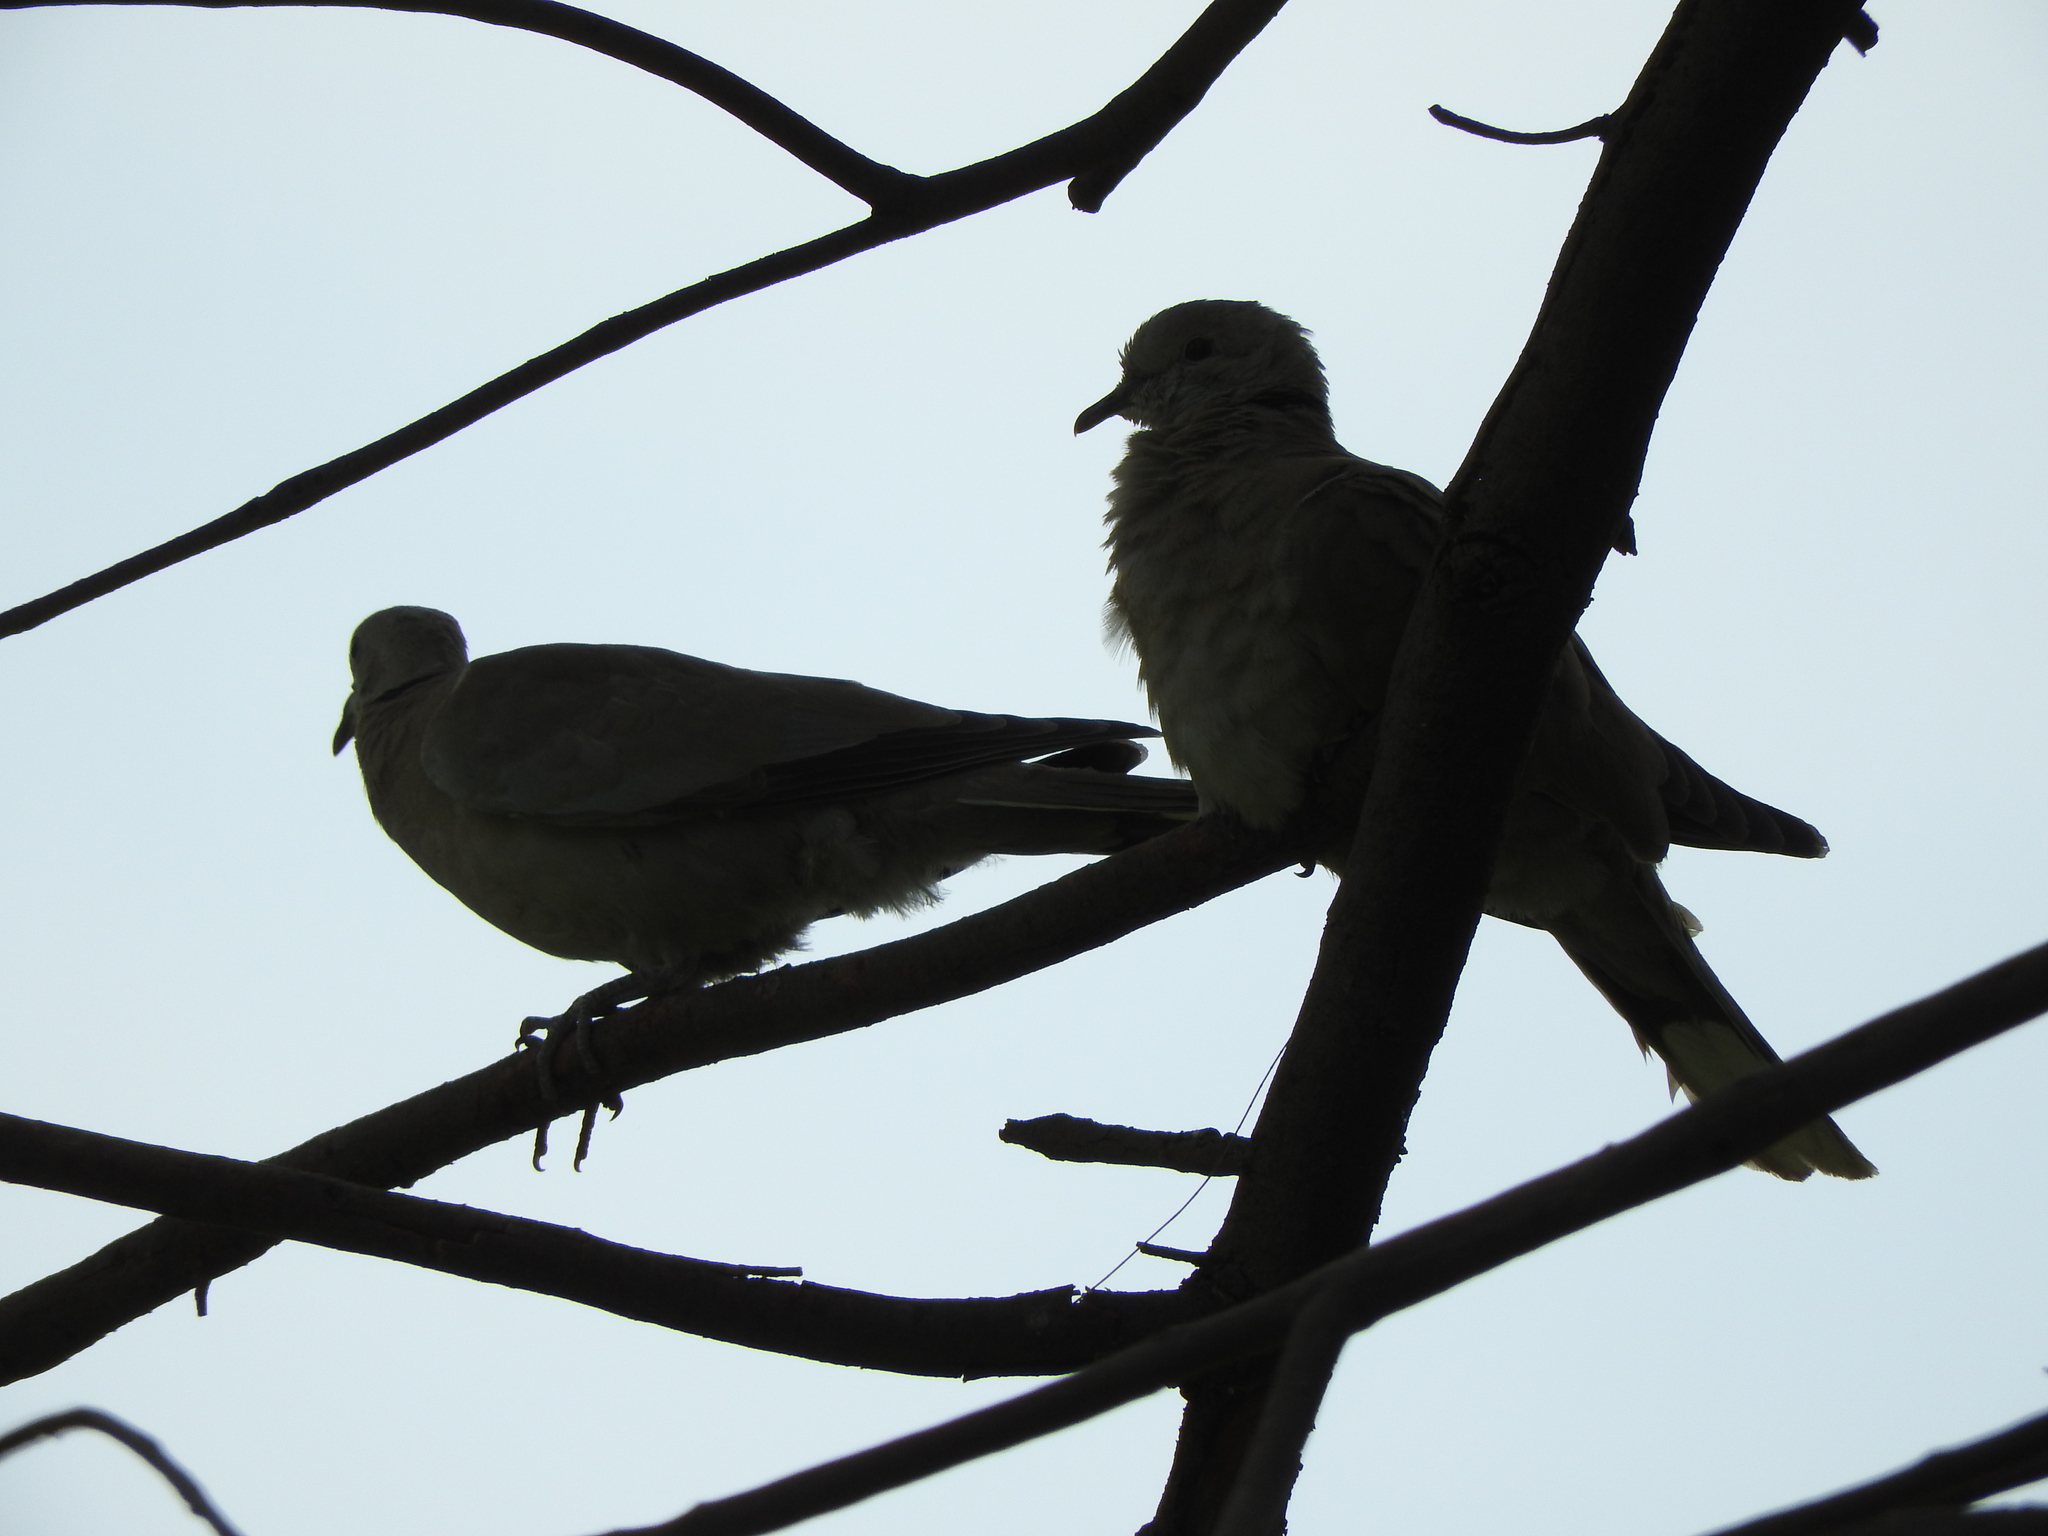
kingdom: Animalia
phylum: Chordata
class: Aves
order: Columbiformes
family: Columbidae
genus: Streptopelia
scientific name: Streptopelia decaocto
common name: Eurasian collared dove
